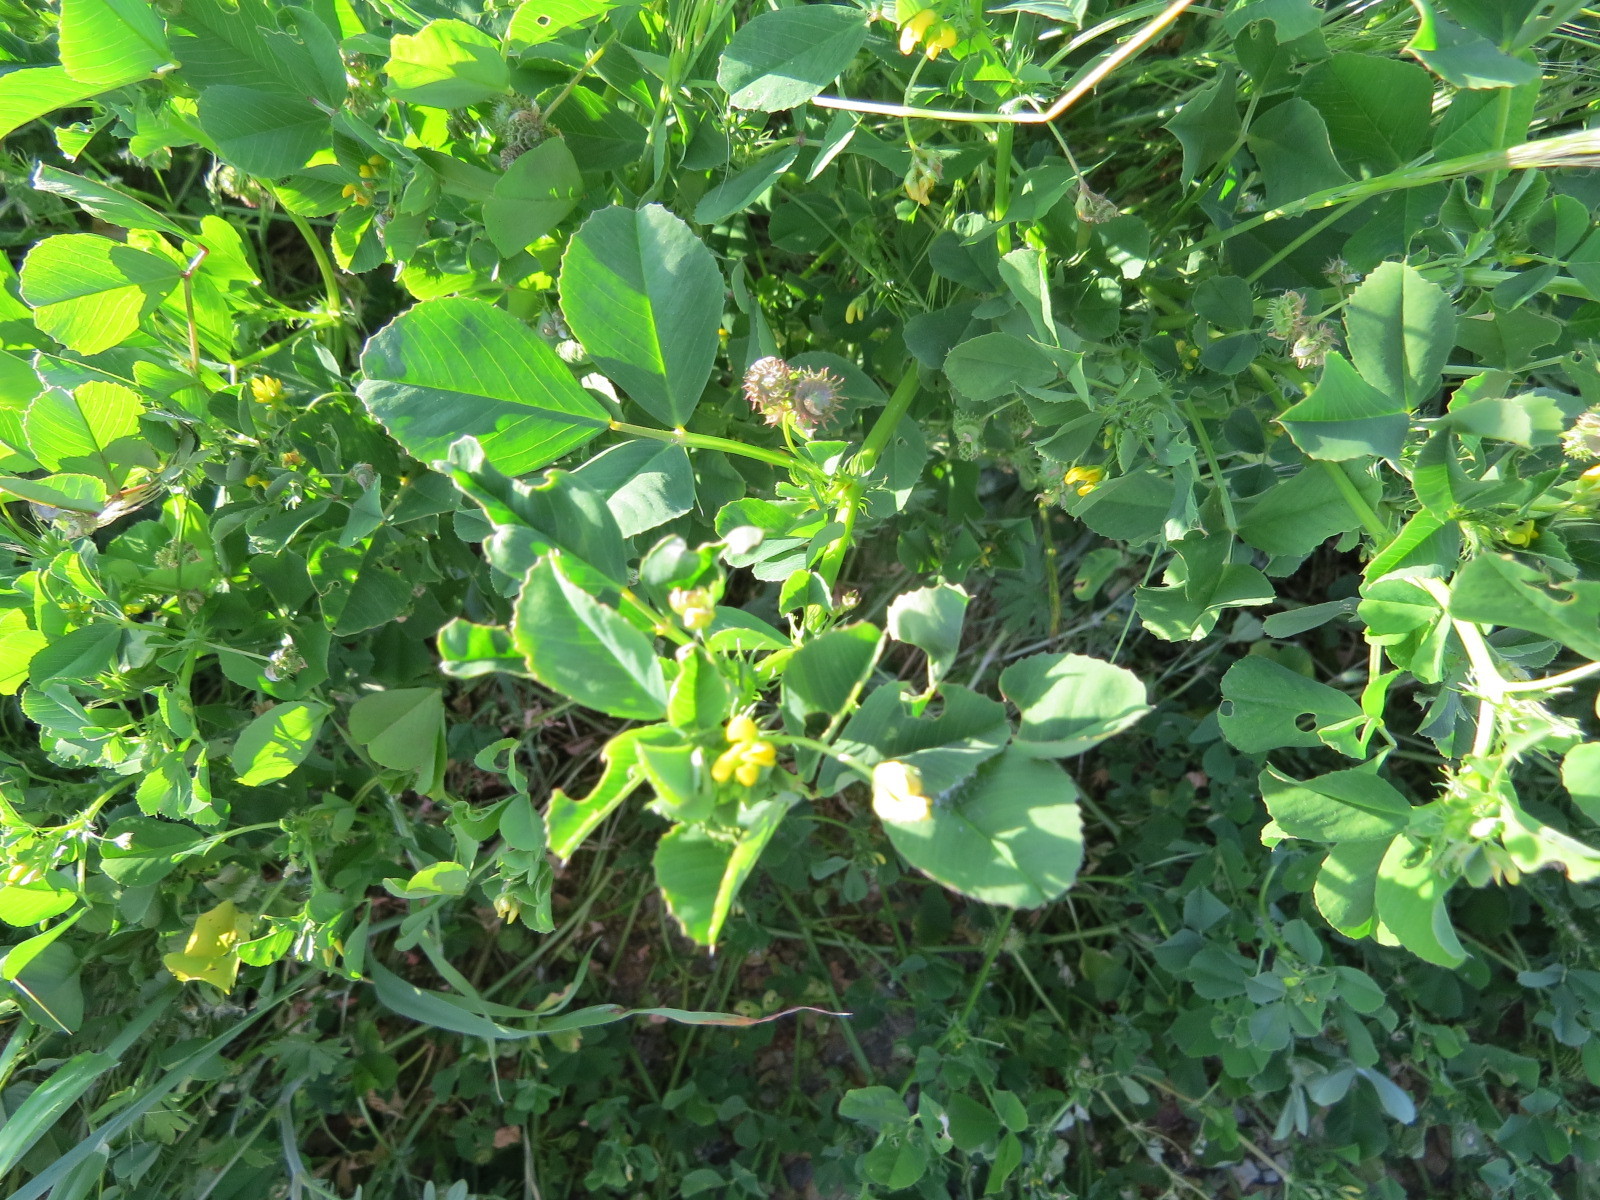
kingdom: Plantae
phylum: Tracheophyta
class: Magnoliopsida
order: Fabales
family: Fabaceae
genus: Medicago
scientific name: Medicago polymorpha
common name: Burclover
